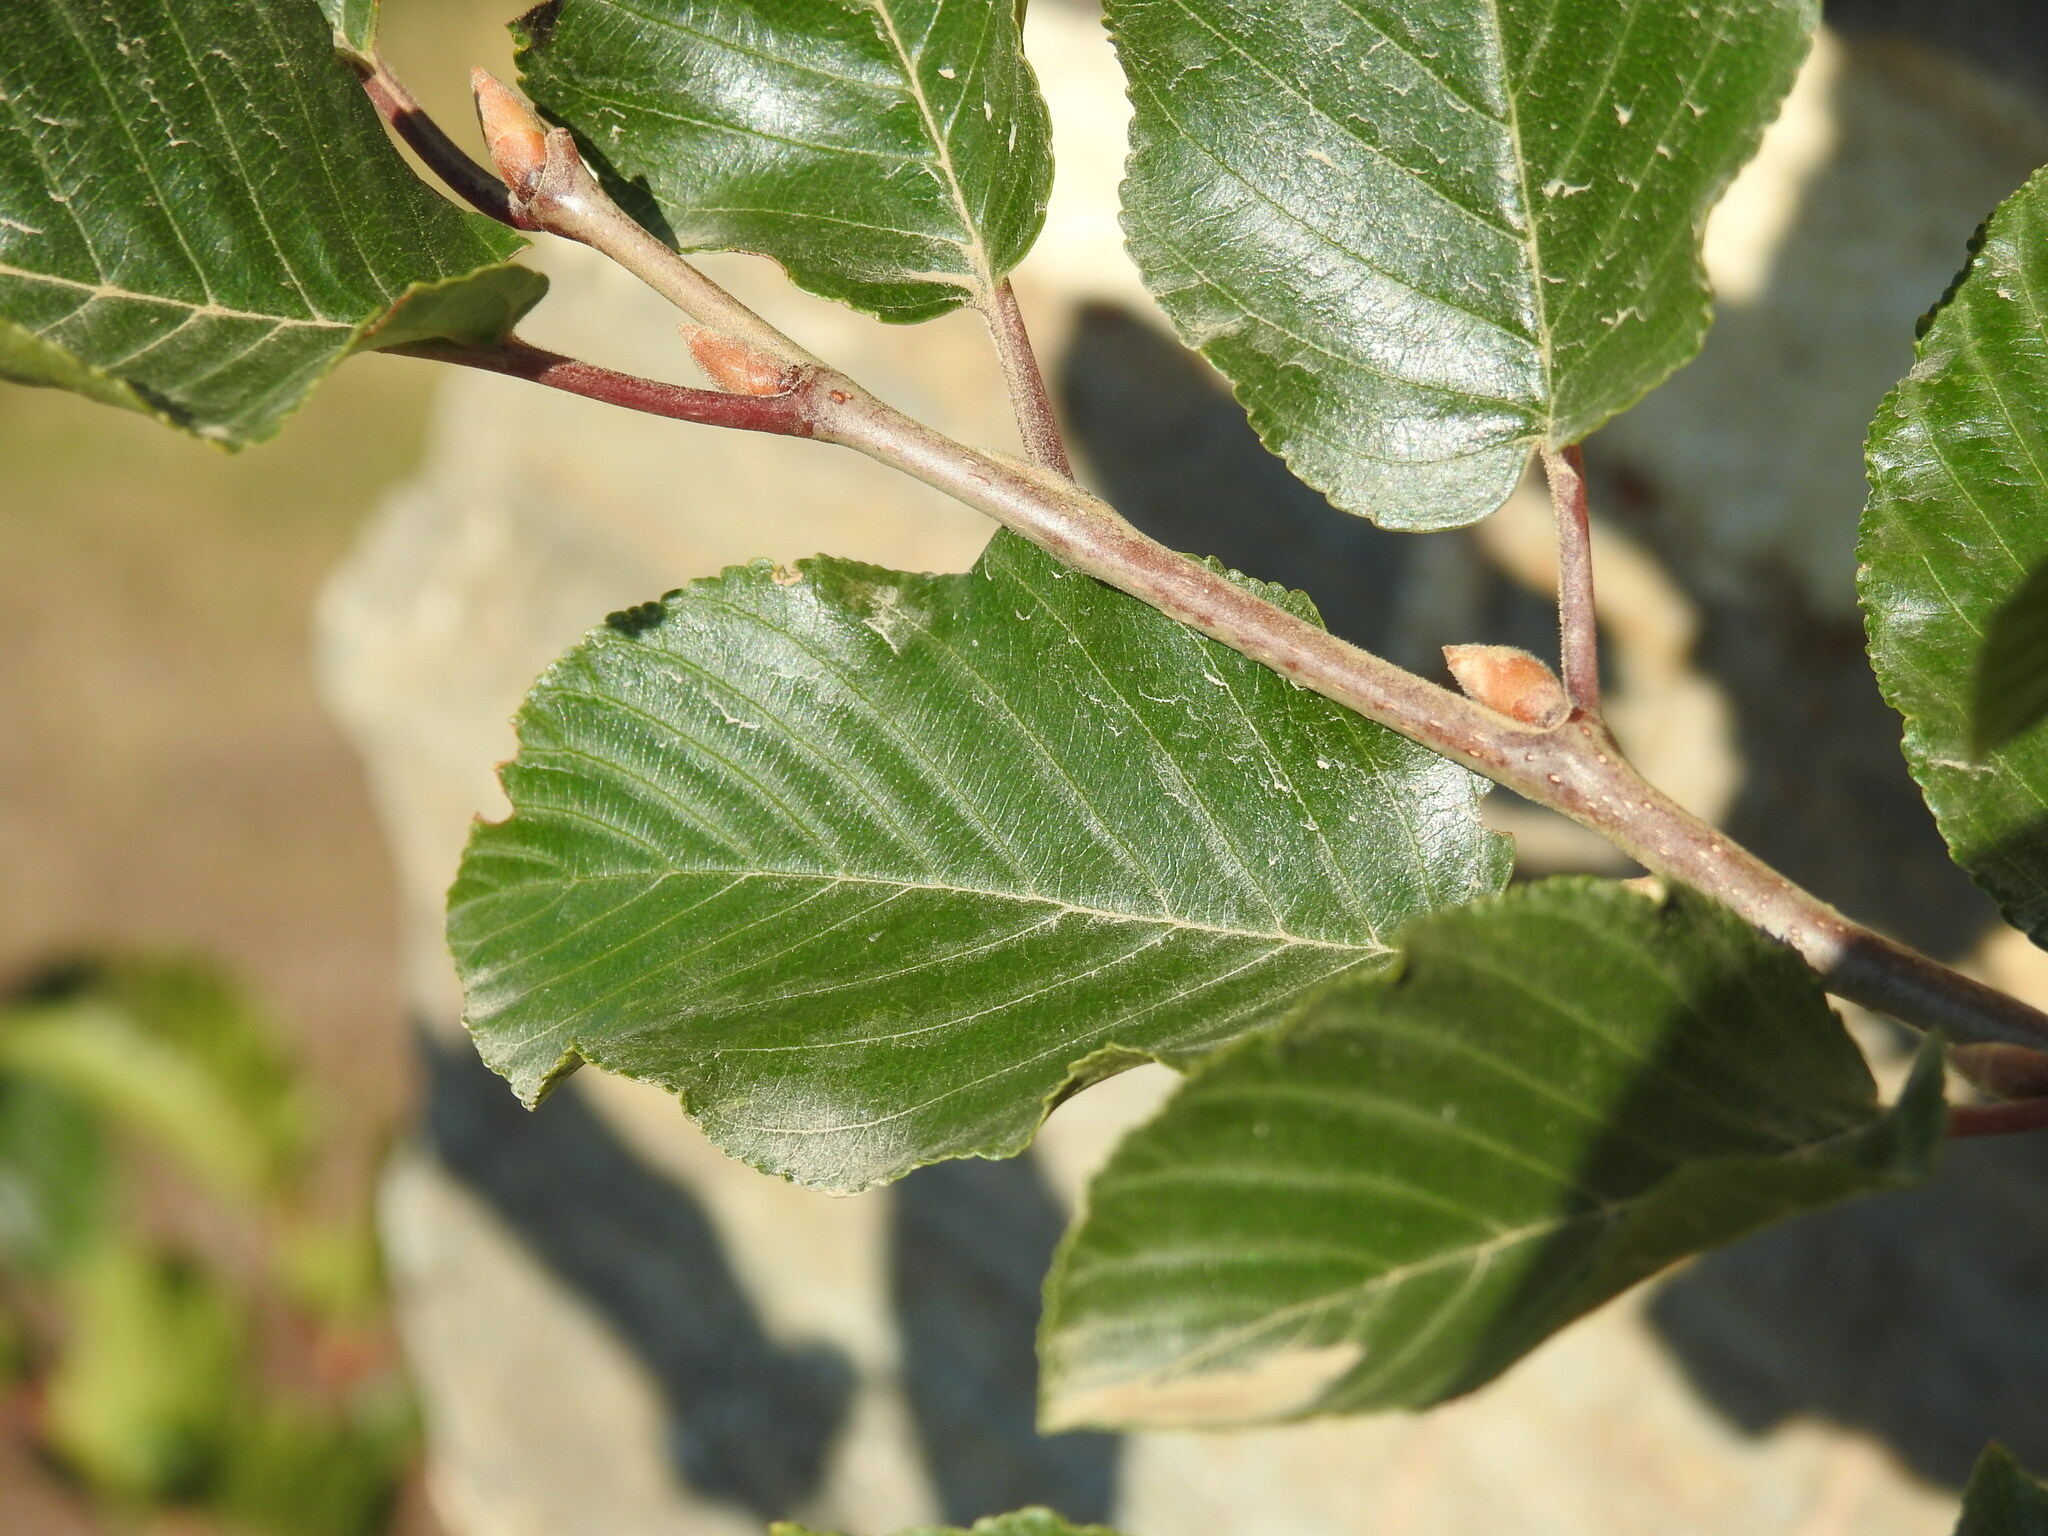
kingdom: Plantae
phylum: Tracheophyta
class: Magnoliopsida
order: Rosales
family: Rhamnaceae
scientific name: Rhamnaceae
